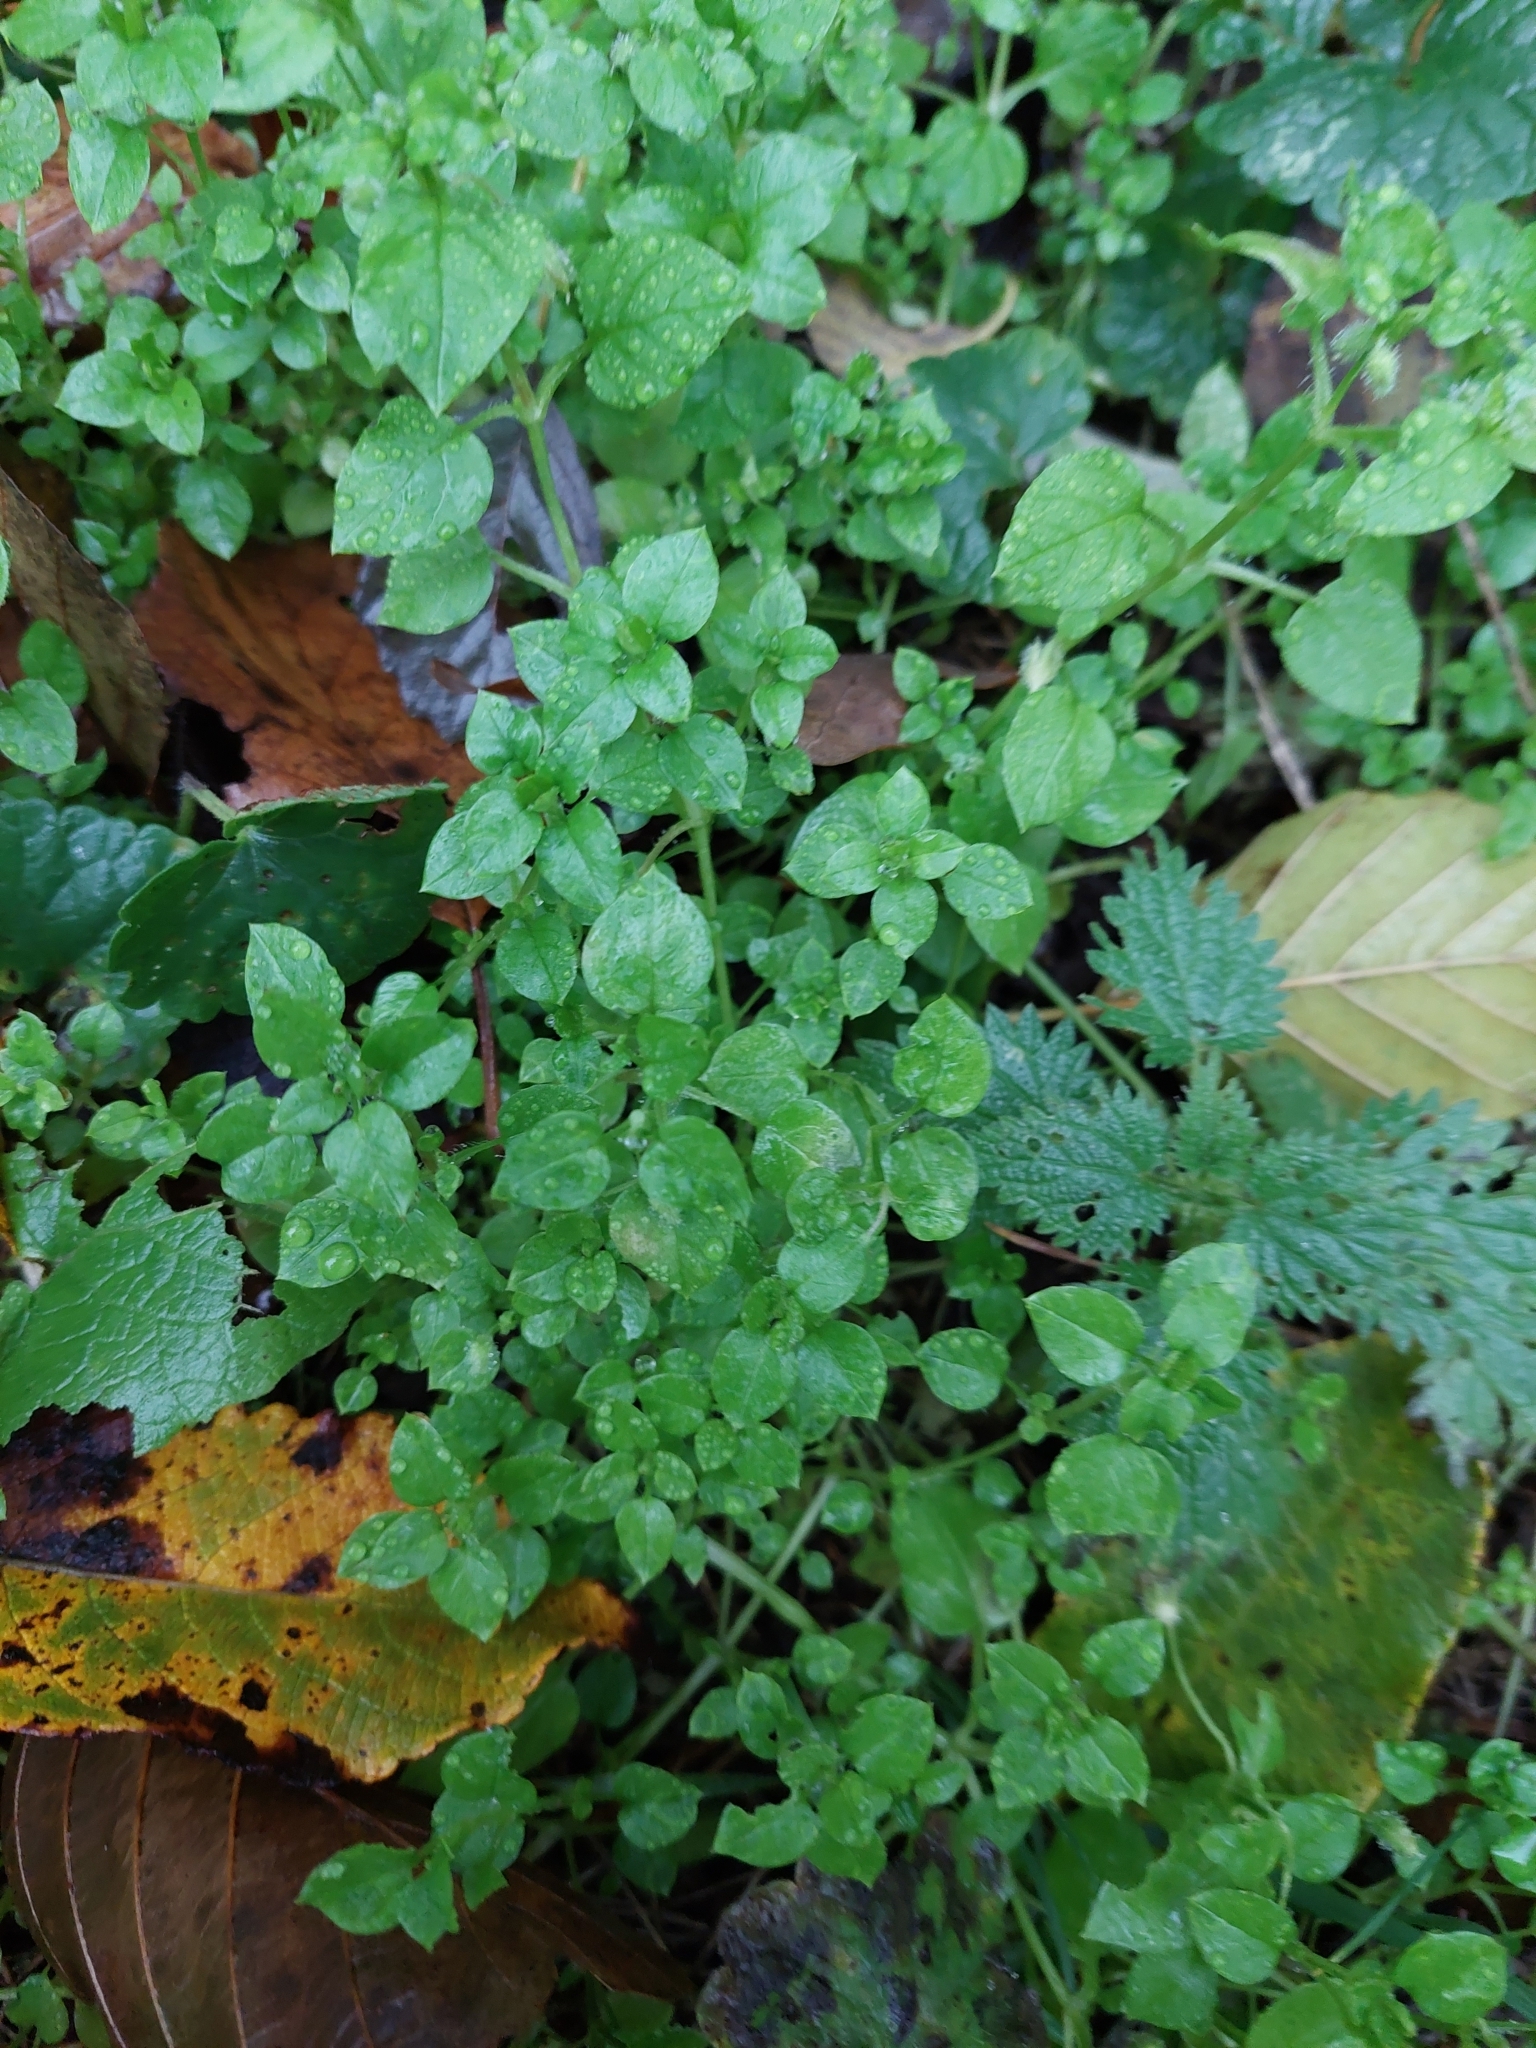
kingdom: Plantae
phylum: Tracheophyta
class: Magnoliopsida
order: Caryophyllales
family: Caryophyllaceae
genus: Stellaria
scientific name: Stellaria media
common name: Common chickweed
